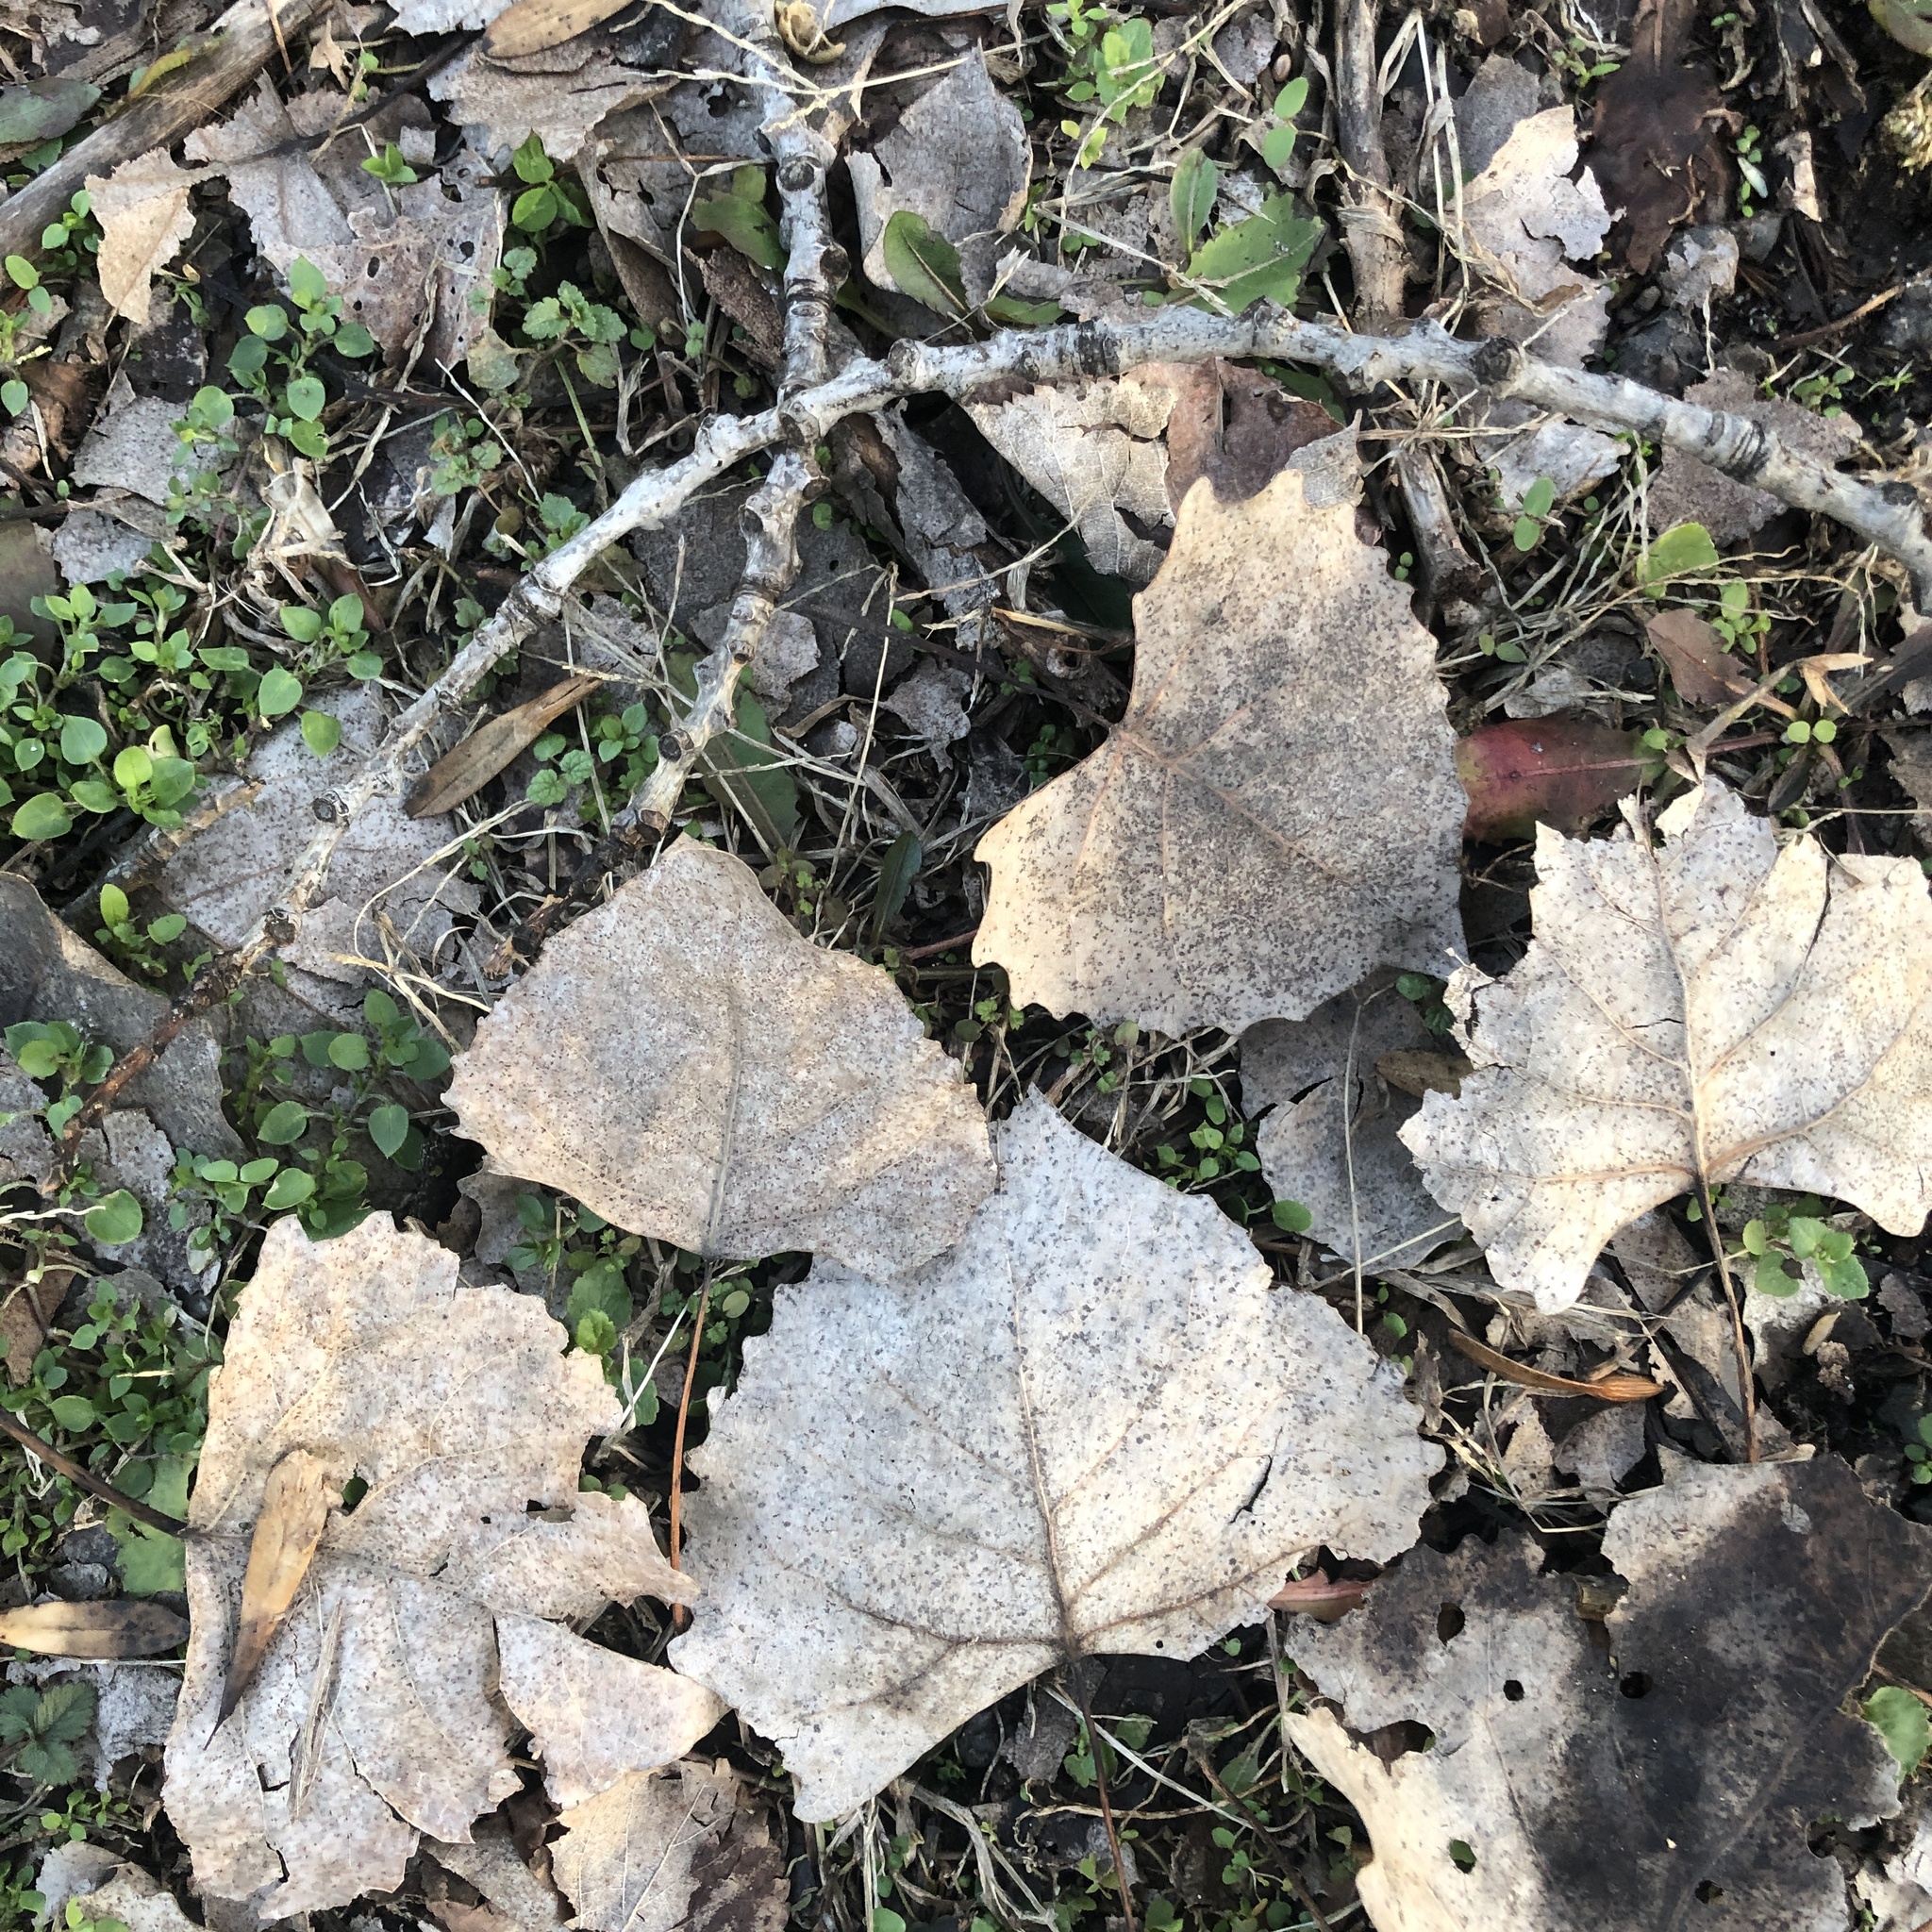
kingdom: Plantae
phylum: Tracheophyta
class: Magnoliopsida
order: Malpighiales
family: Salicaceae
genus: Populus
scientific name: Populus deltoides
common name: Eastern cottonwood
